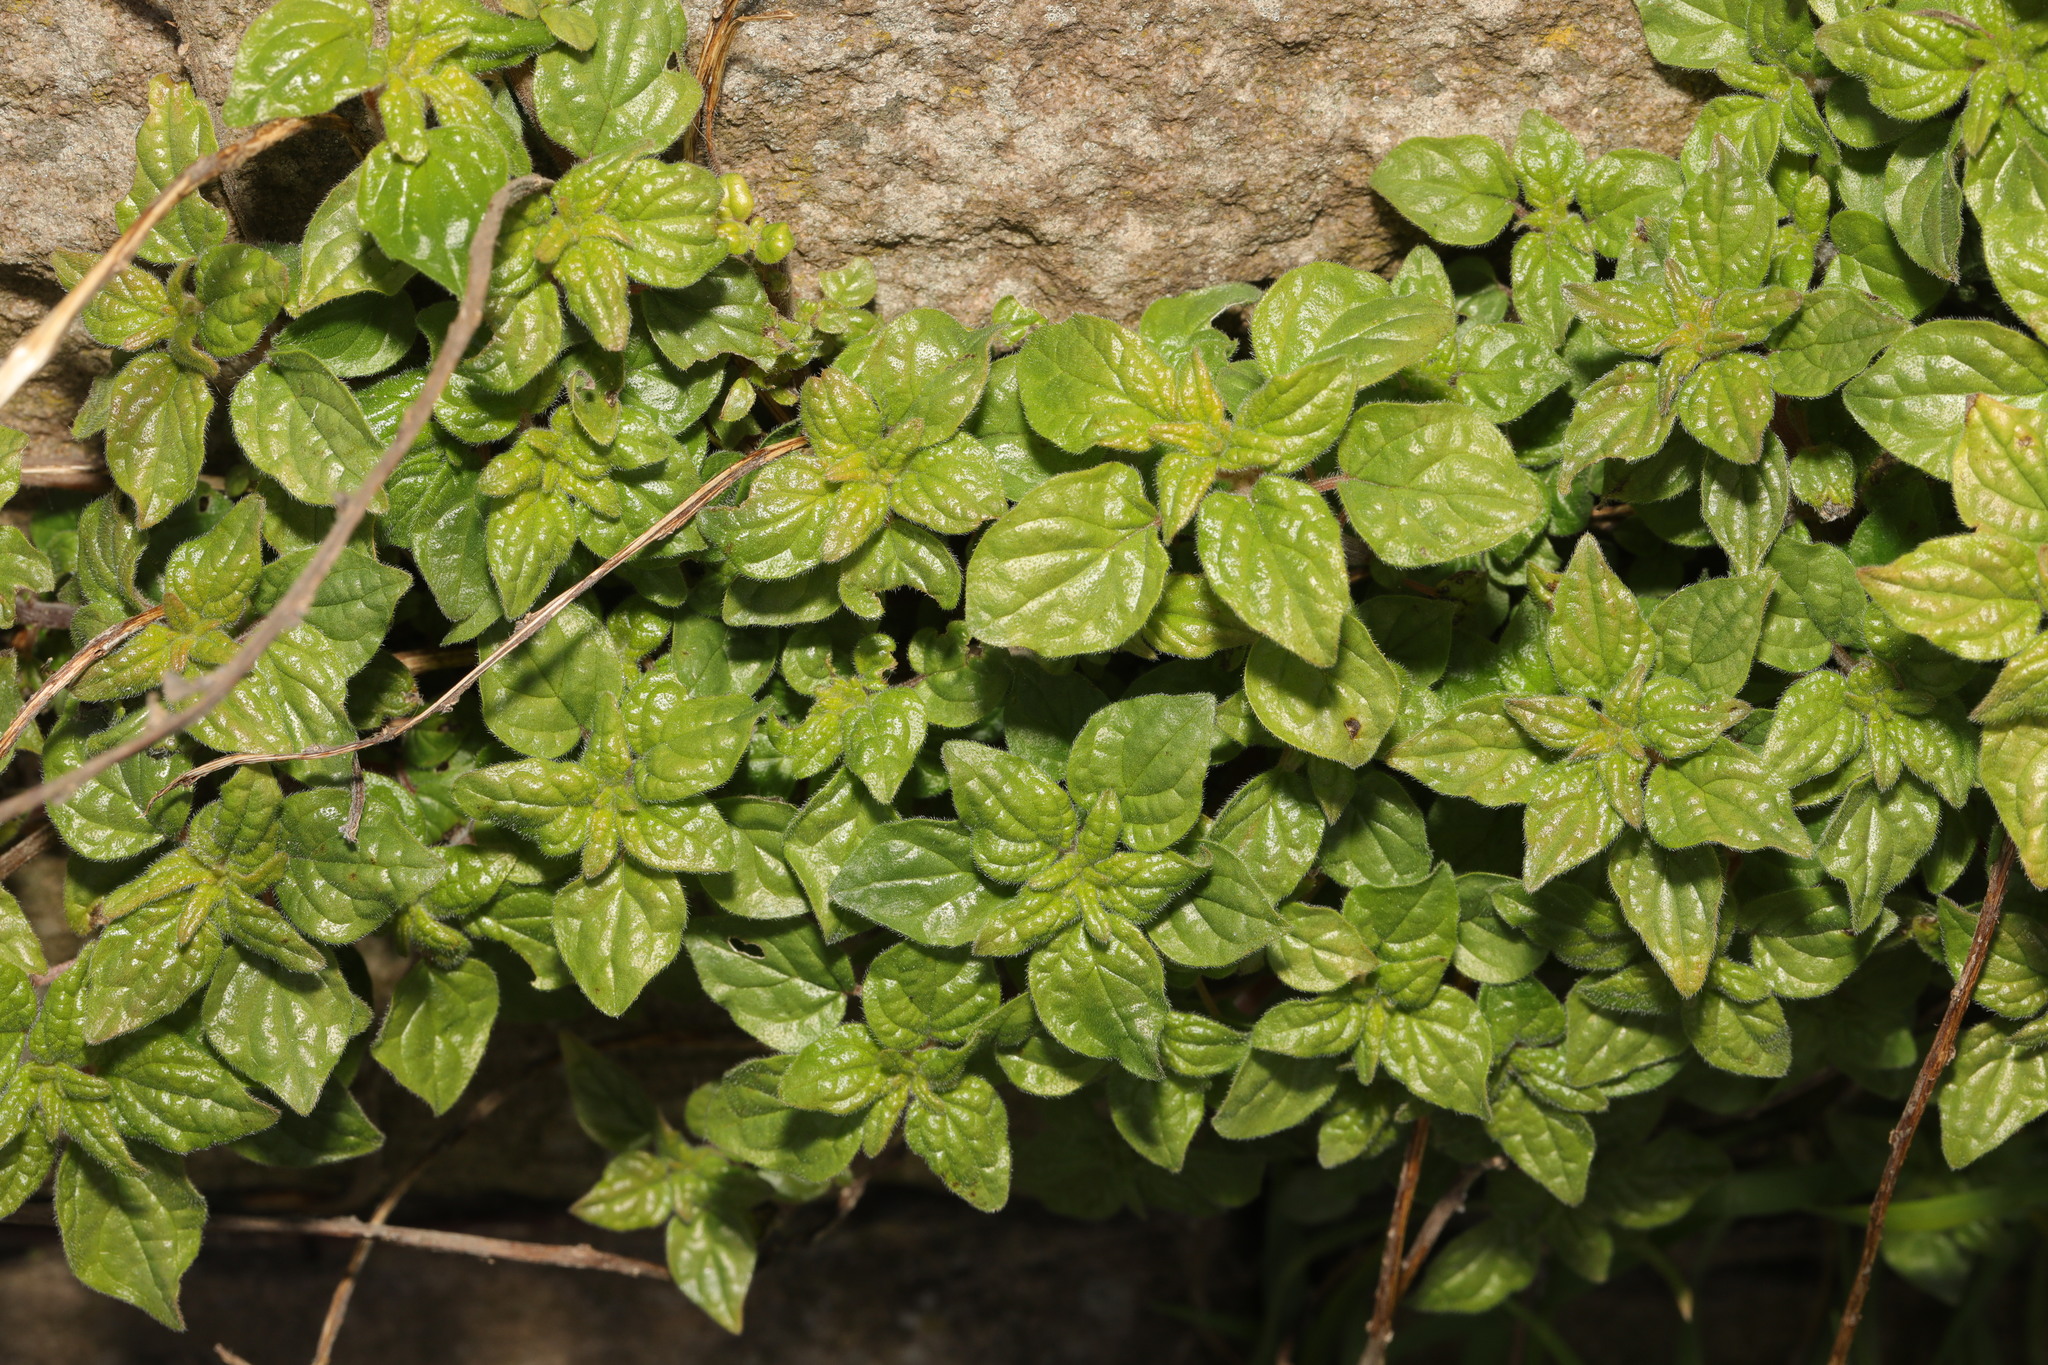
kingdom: Plantae
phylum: Tracheophyta
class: Magnoliopsida
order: Rosales
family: Urticaceae
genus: Parietaria
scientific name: Parietaria judaica
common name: Pellitory-of-the-wall
